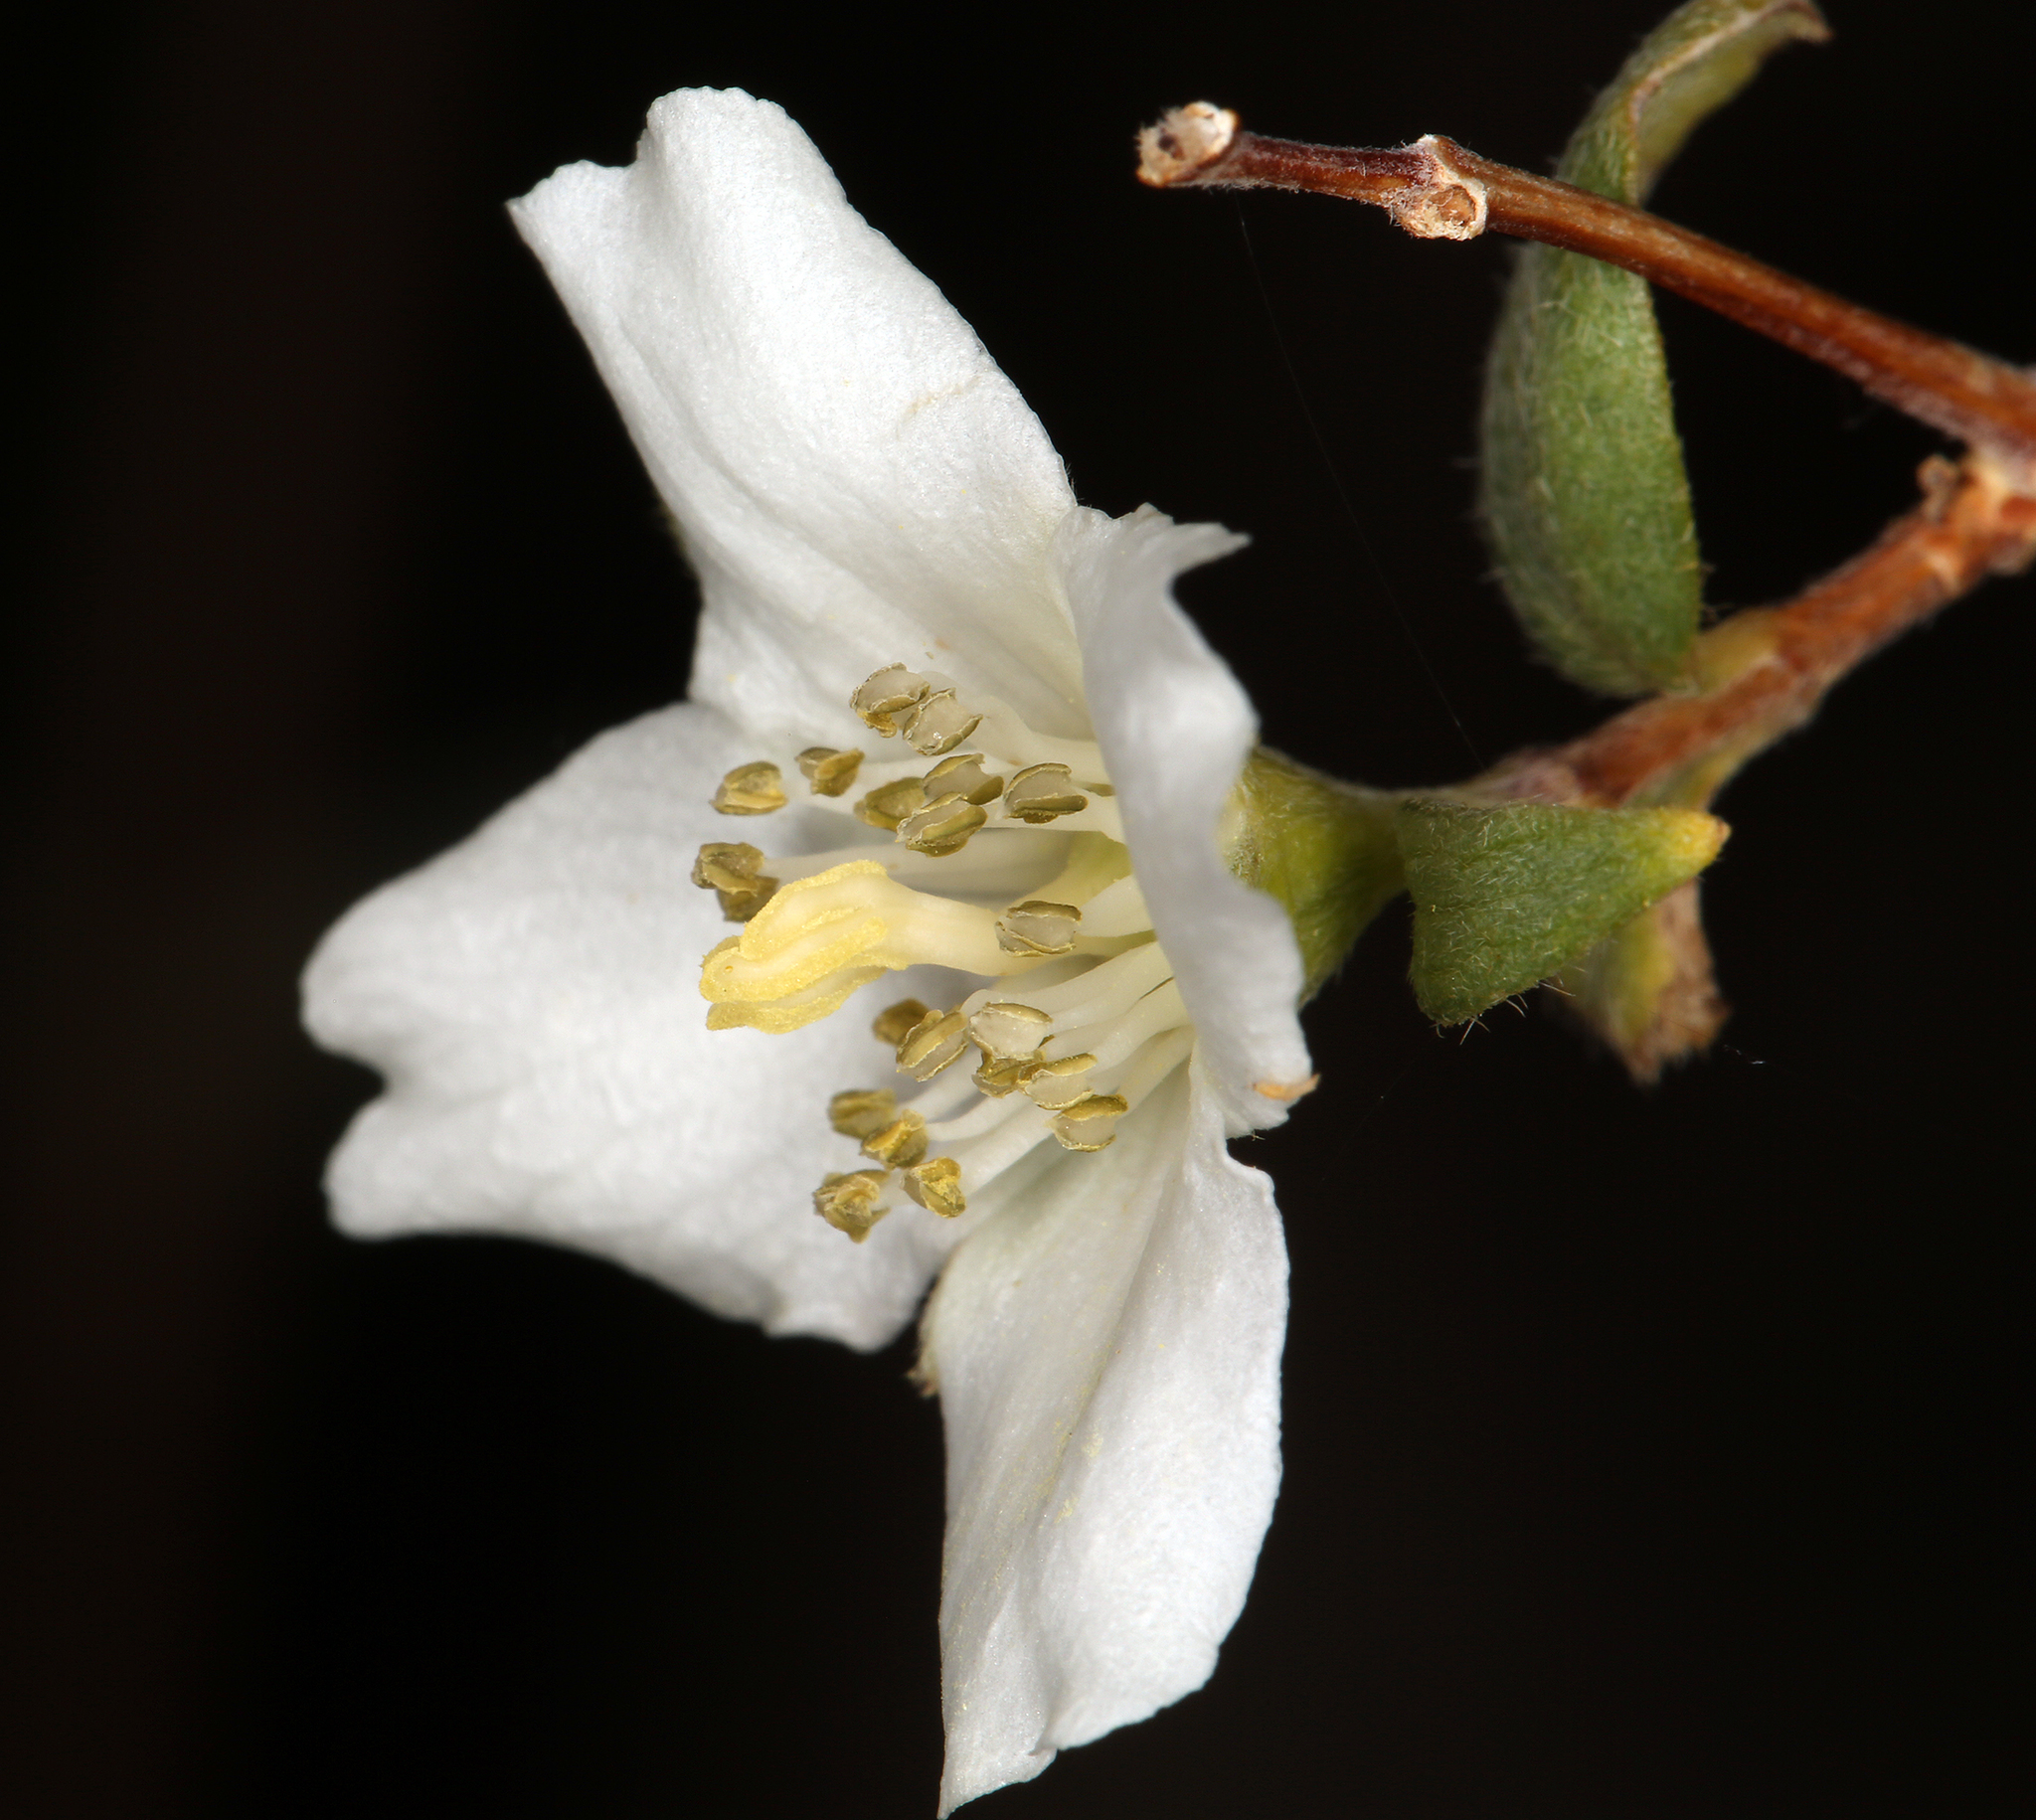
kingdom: Plantae
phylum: Tracheophyta
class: Magnoliopsida
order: Cornales
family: Hydrangeaceae
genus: Philadelphus
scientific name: Philadelphus microphyllus
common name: Desert mock orange
